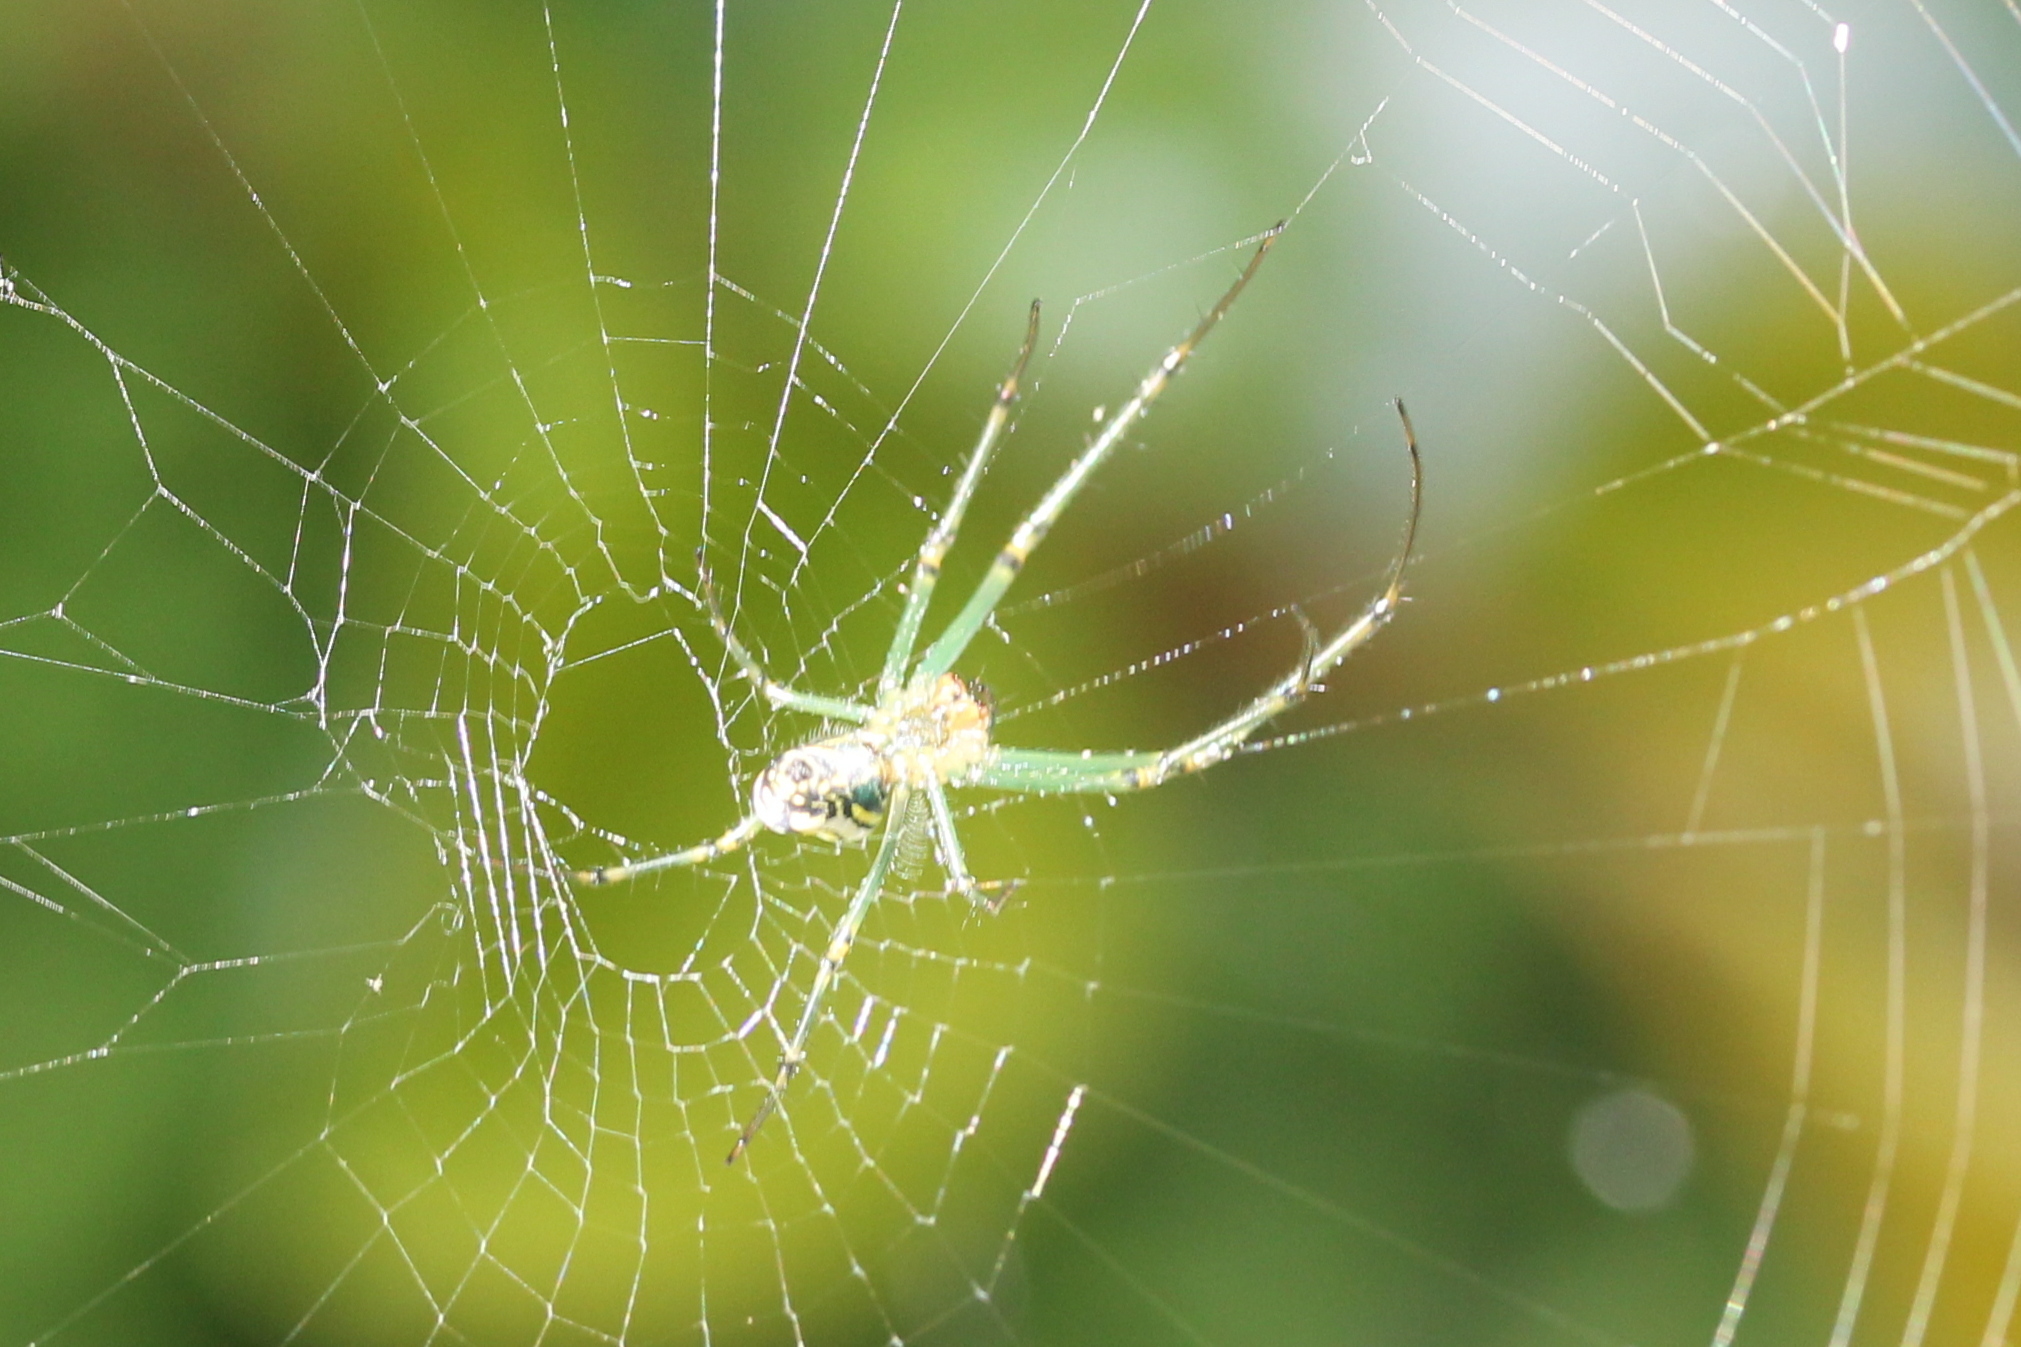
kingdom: Animalia
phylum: Arthropoda
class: Arachnida
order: Araneae
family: Tetragnathidae
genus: Leucauge
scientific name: Leucauge venusta
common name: Longjawed orb weavers
